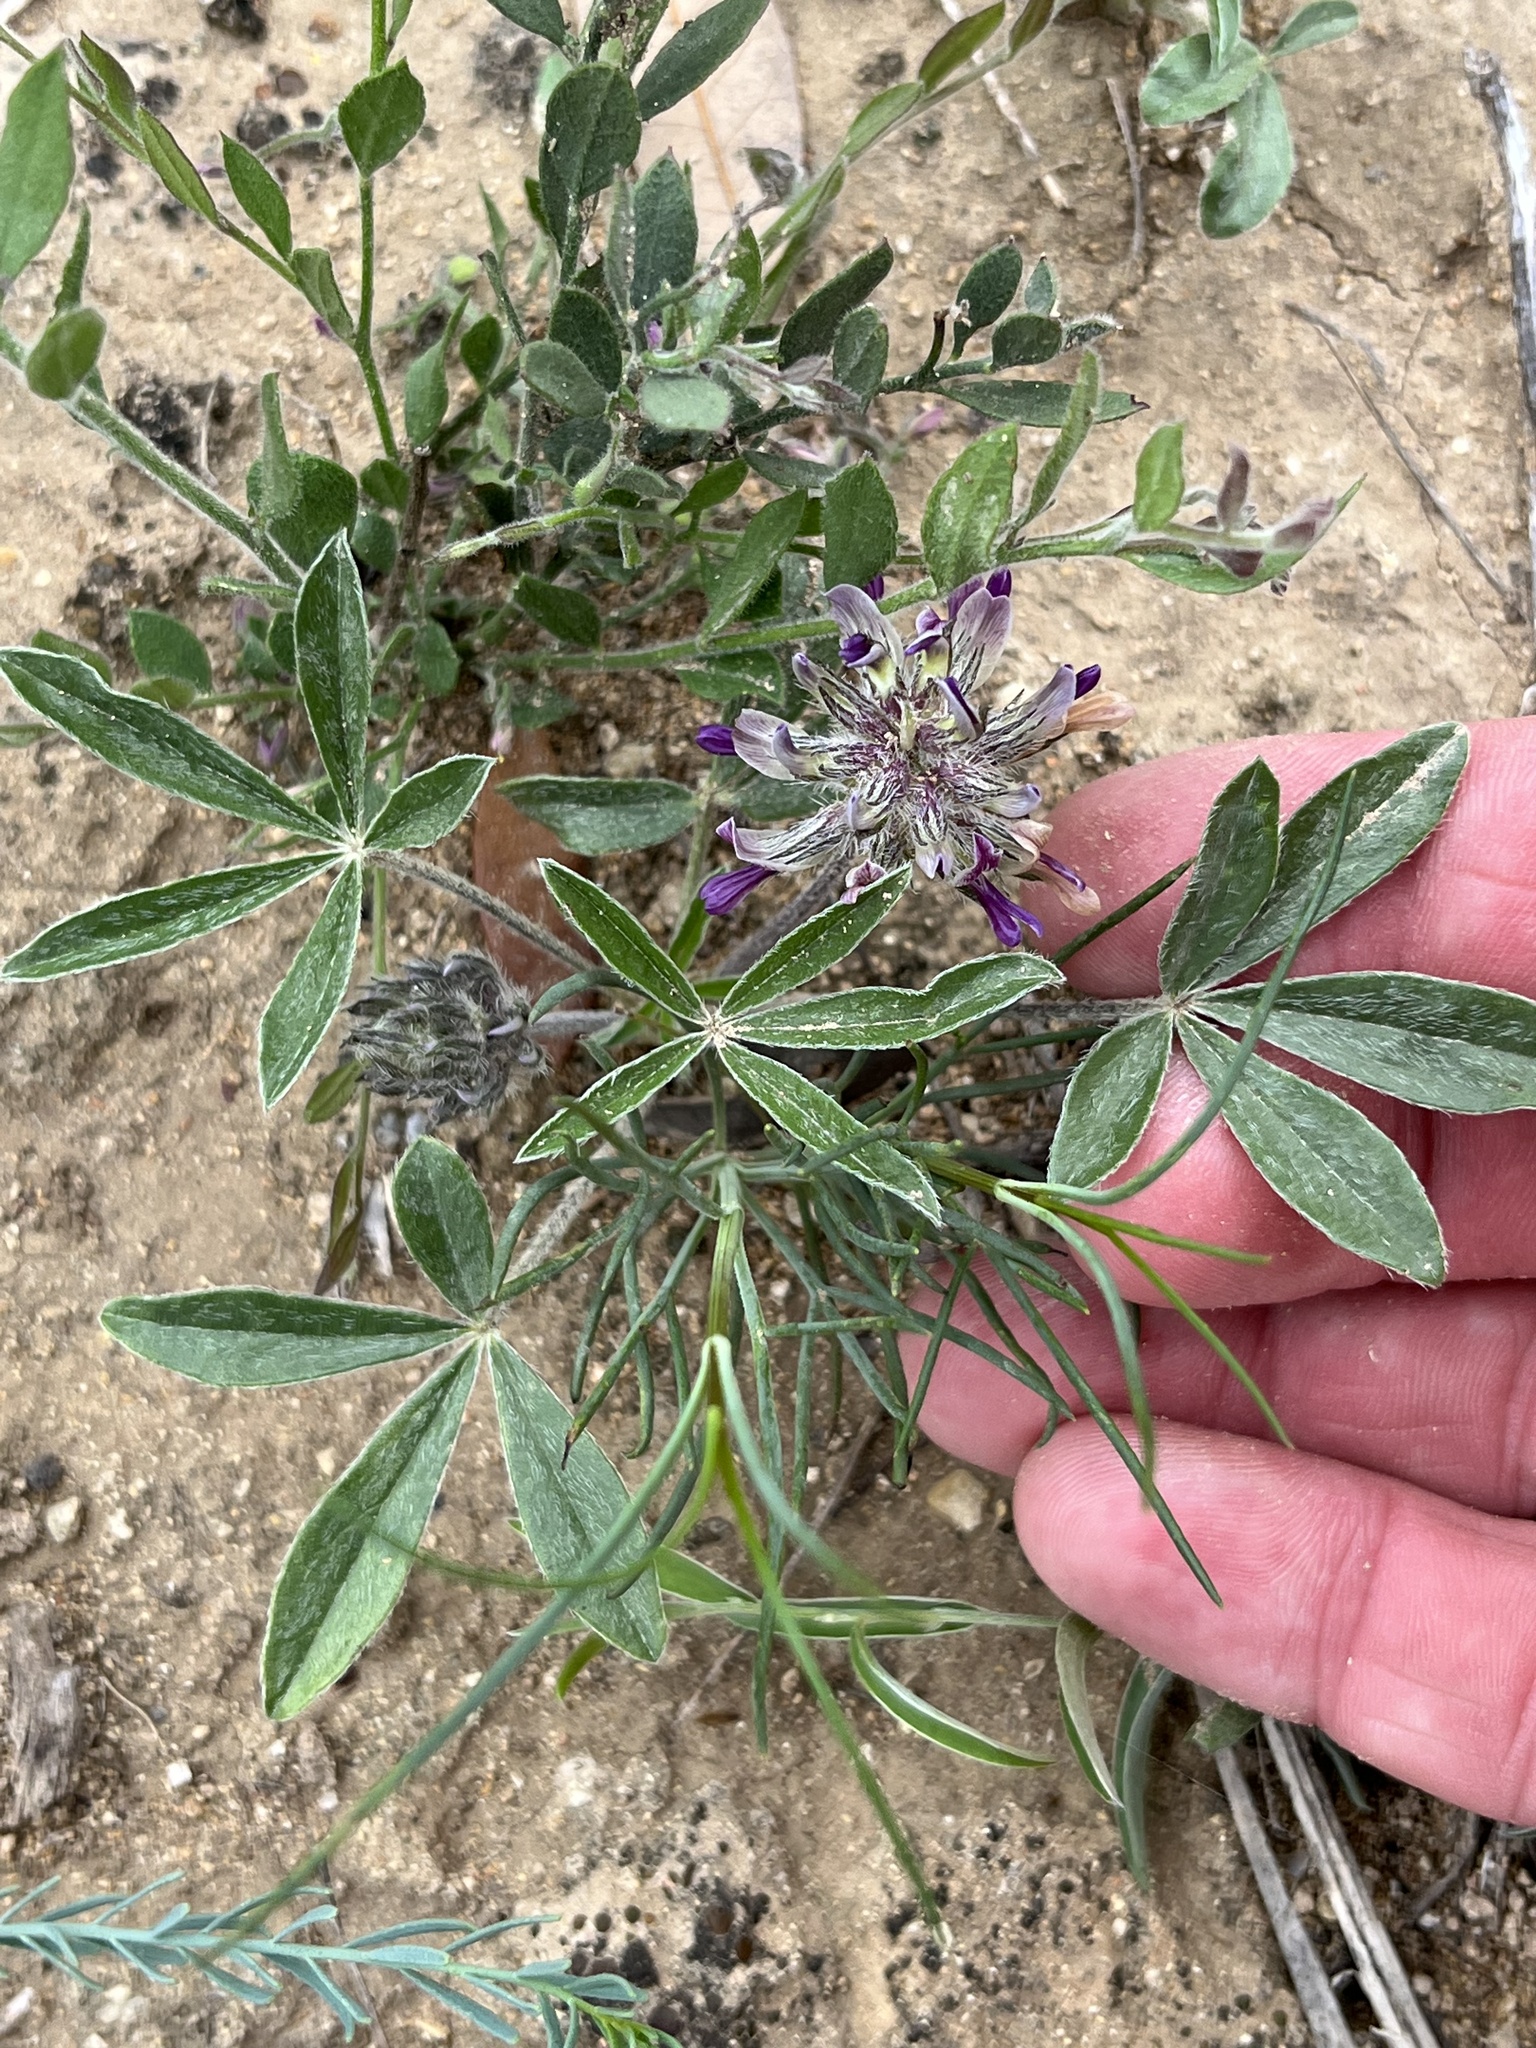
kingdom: Plantae
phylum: Tracheophyta
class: Magnoliopsida
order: Fabales
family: Fabaceae
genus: Pediomelum
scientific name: Pediomelum hypogaeum
